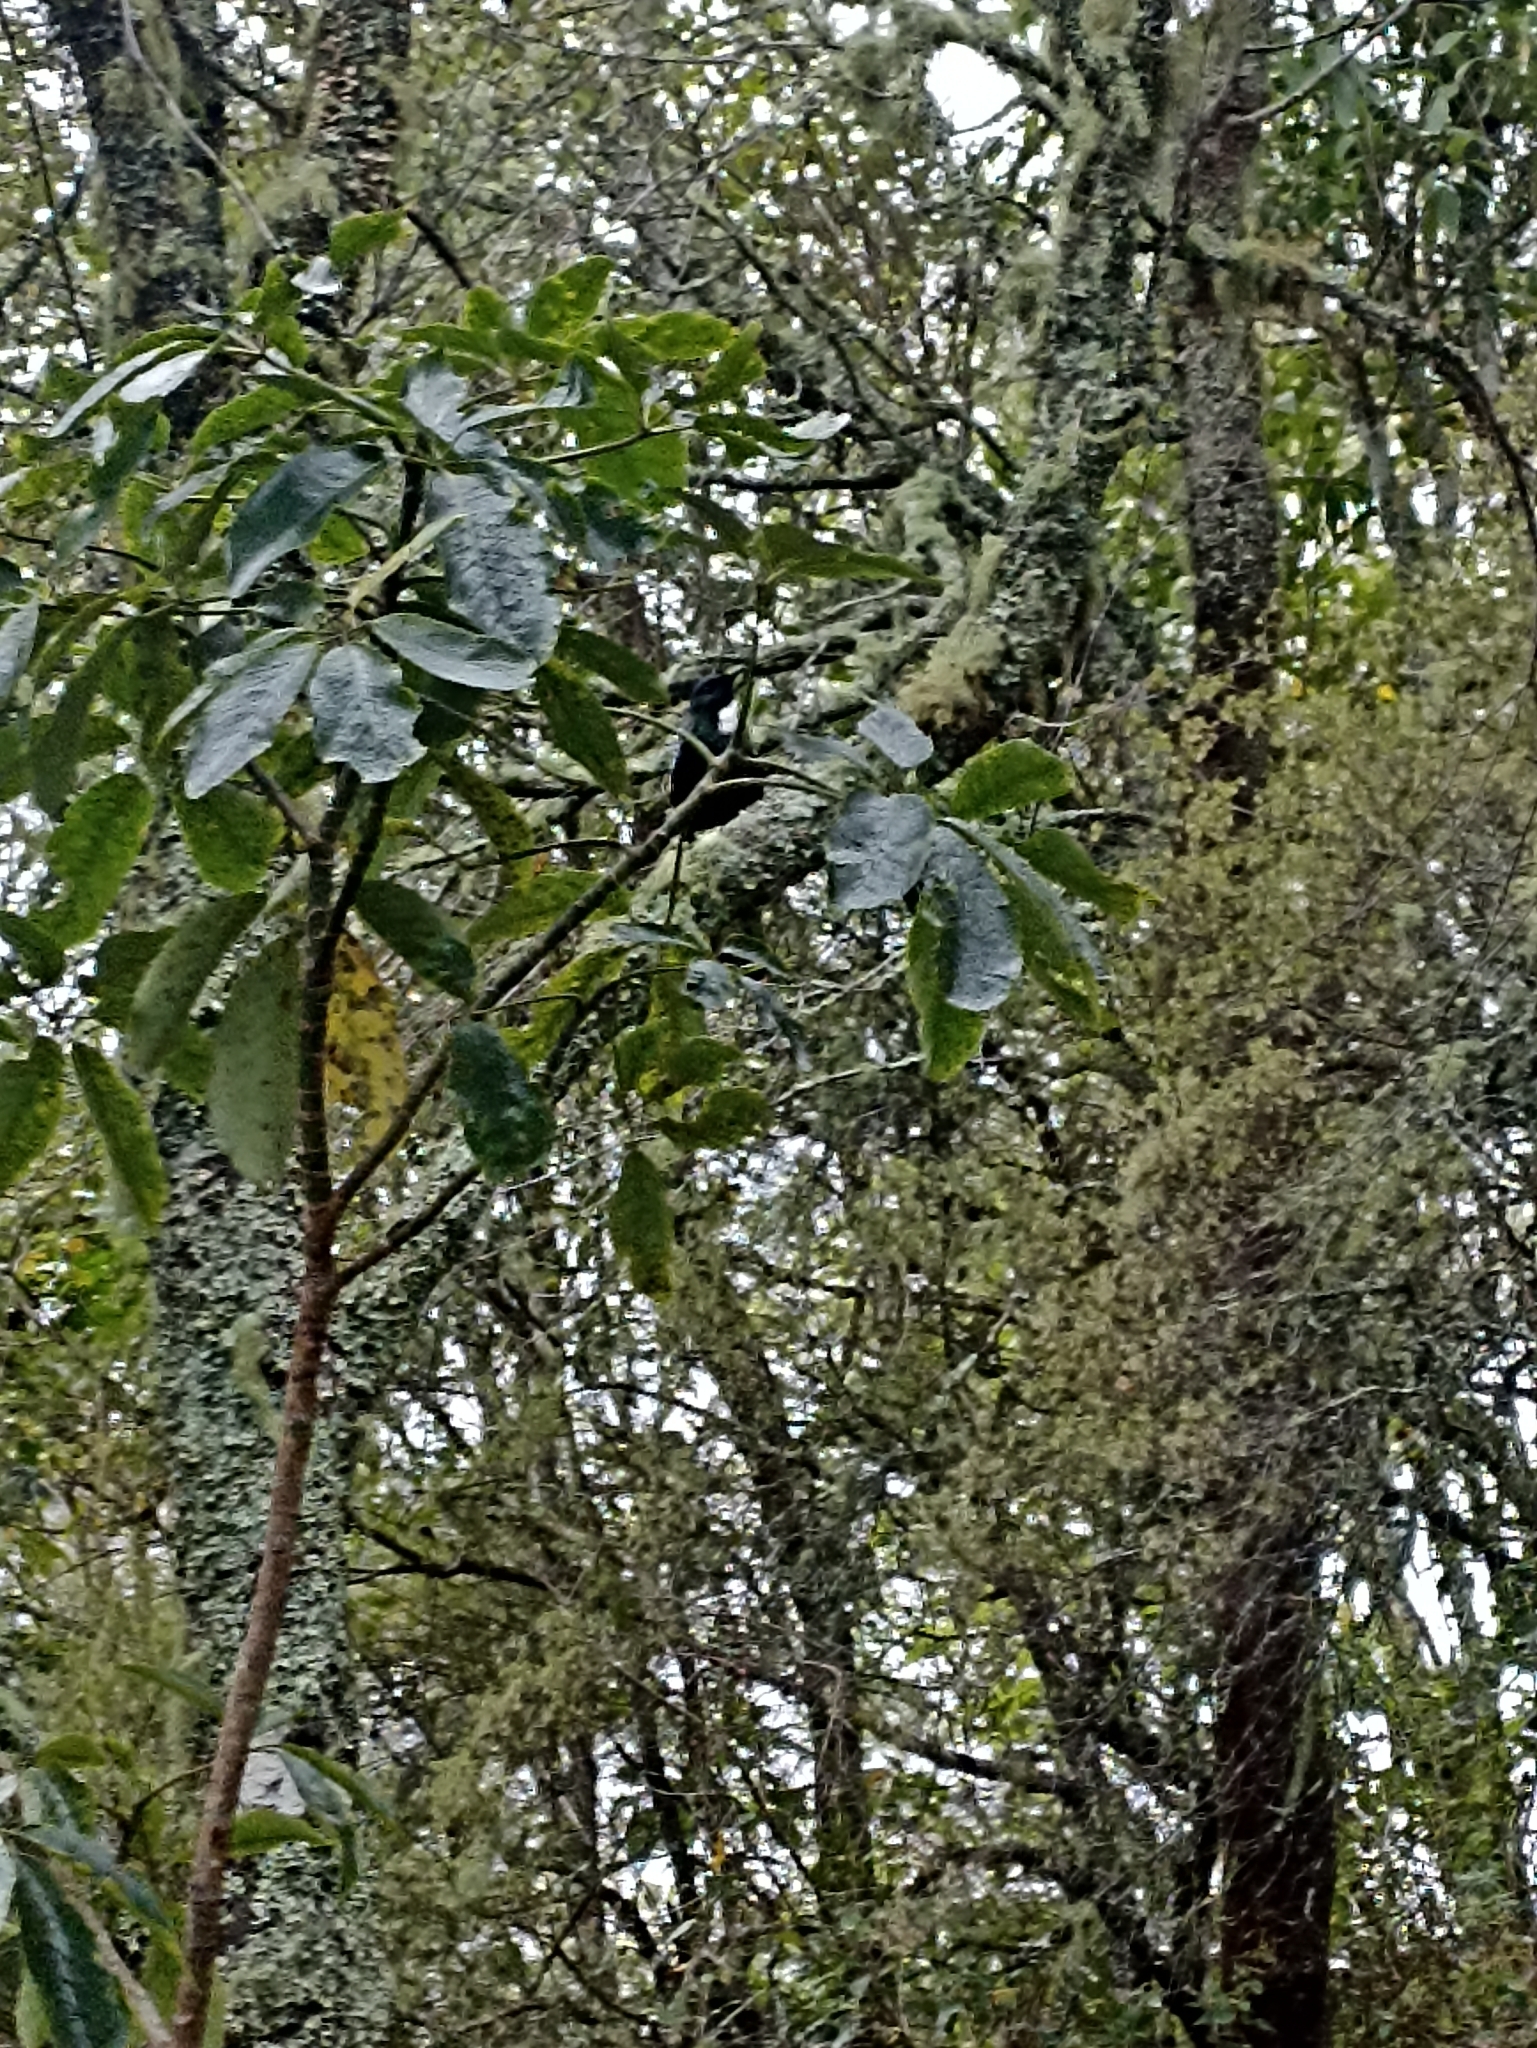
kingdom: Animalia
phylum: Chordata
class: Aves
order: Passeriformes
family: Meliphagidae
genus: Prosthemadera
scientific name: Prosthemadera novaeseelandiae
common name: Tui
